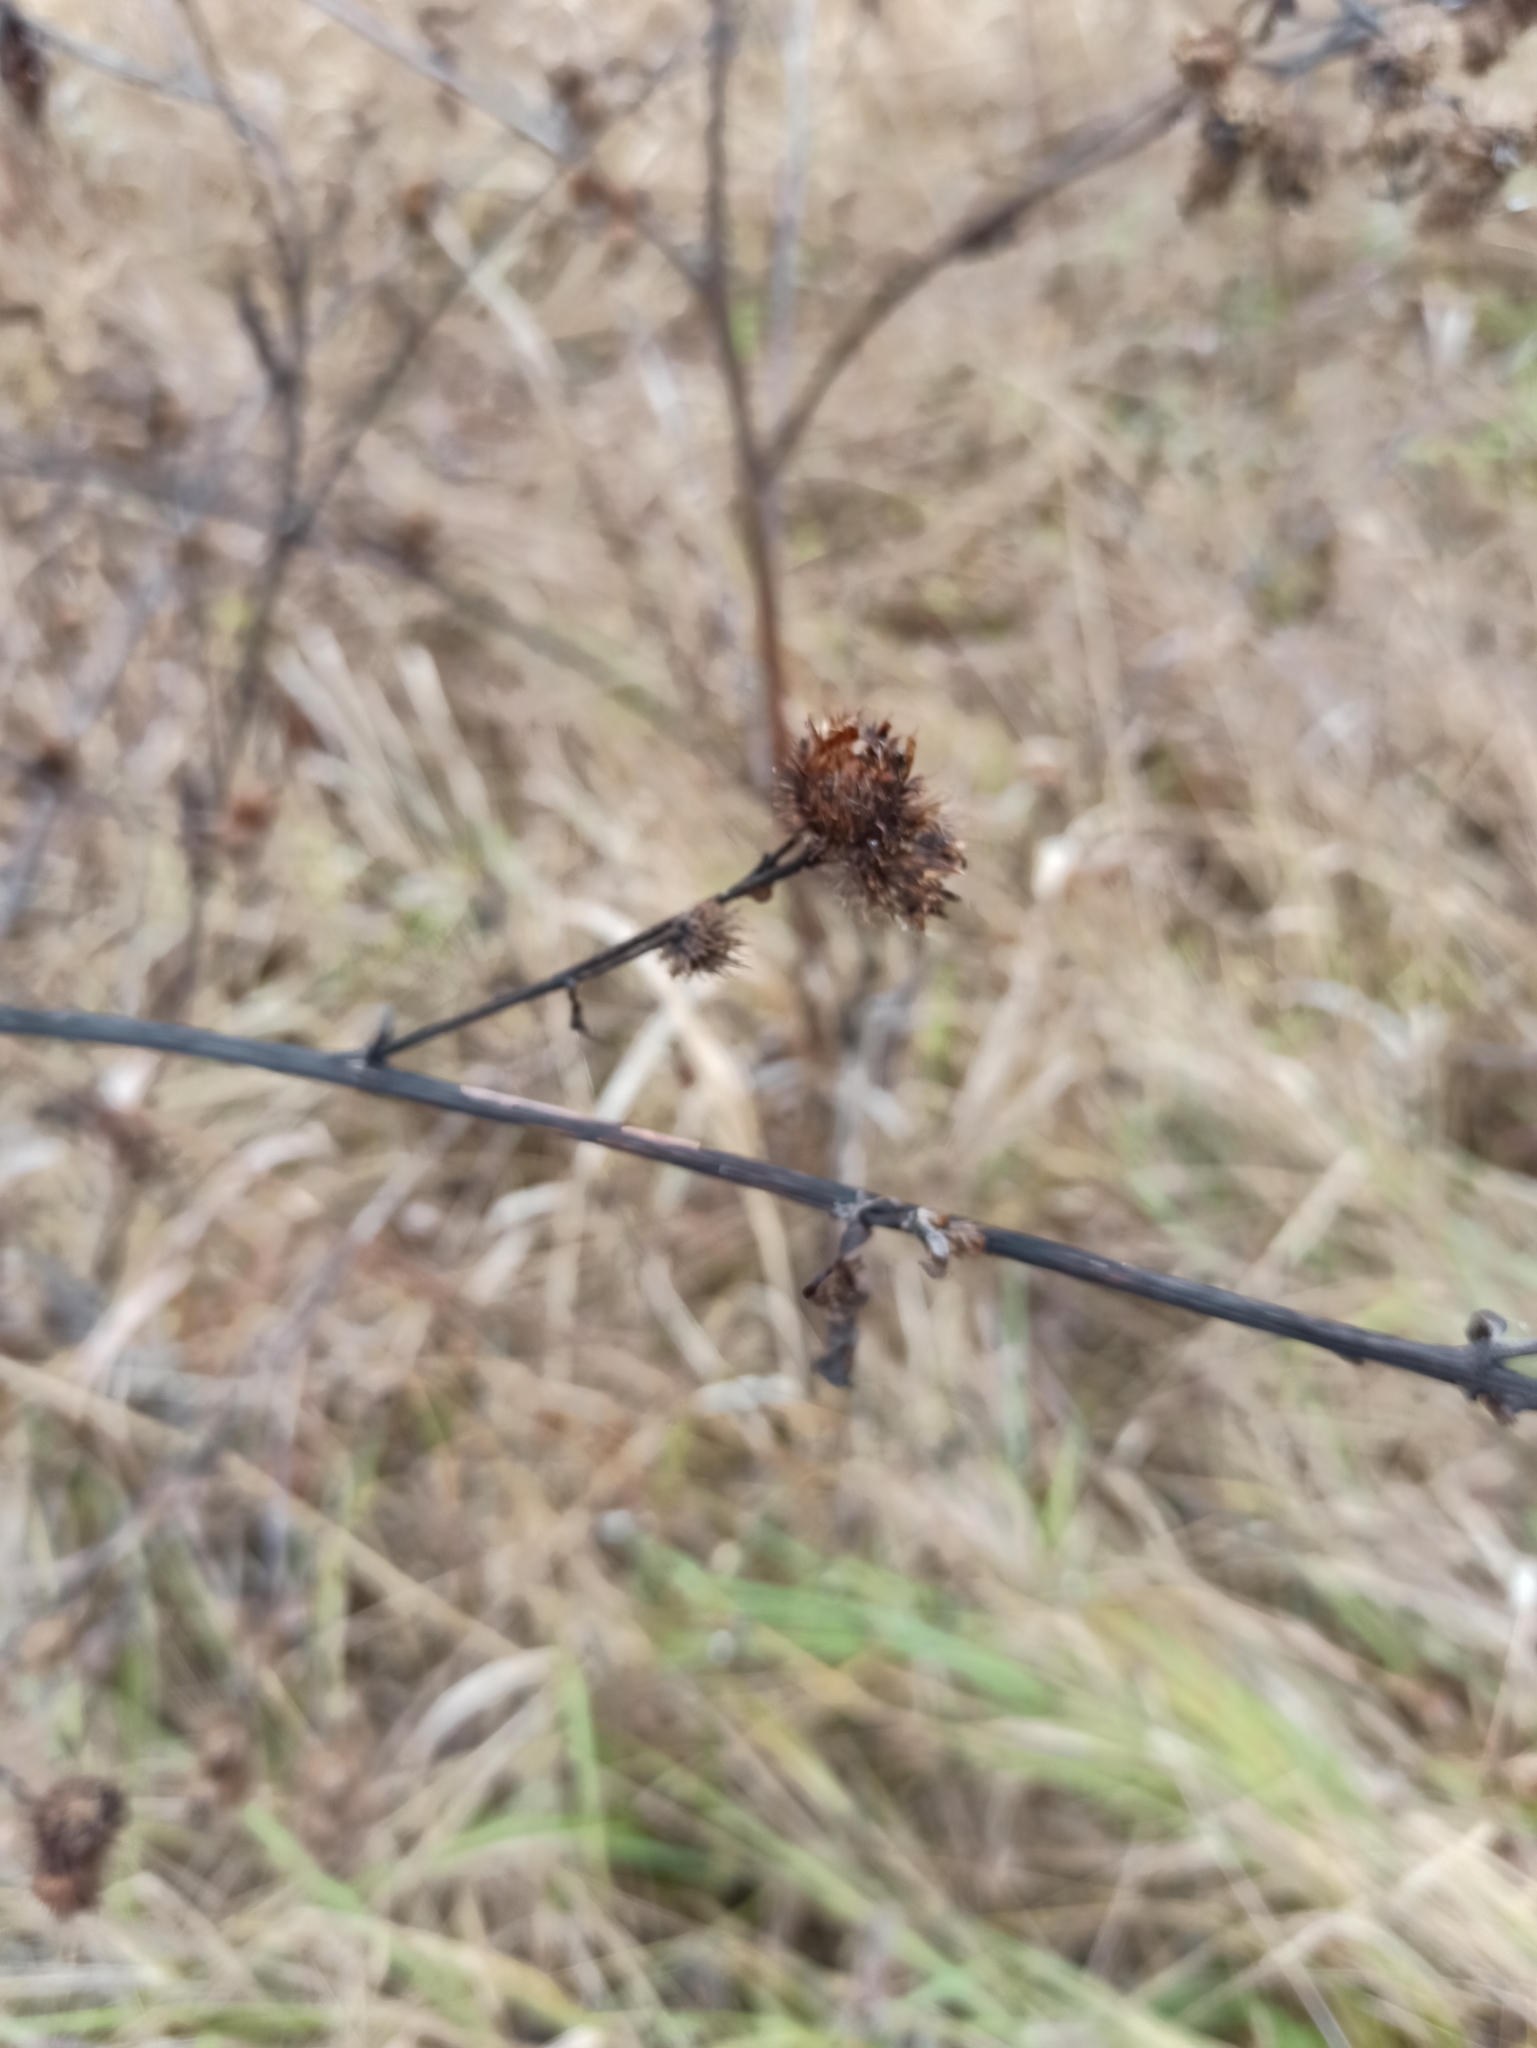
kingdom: Plantae
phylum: Tracheophyta
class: Magnoliopsida
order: Asterales
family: Asteraceae
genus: Arctium
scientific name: Arctium tomentosum
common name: Woolly burdock
